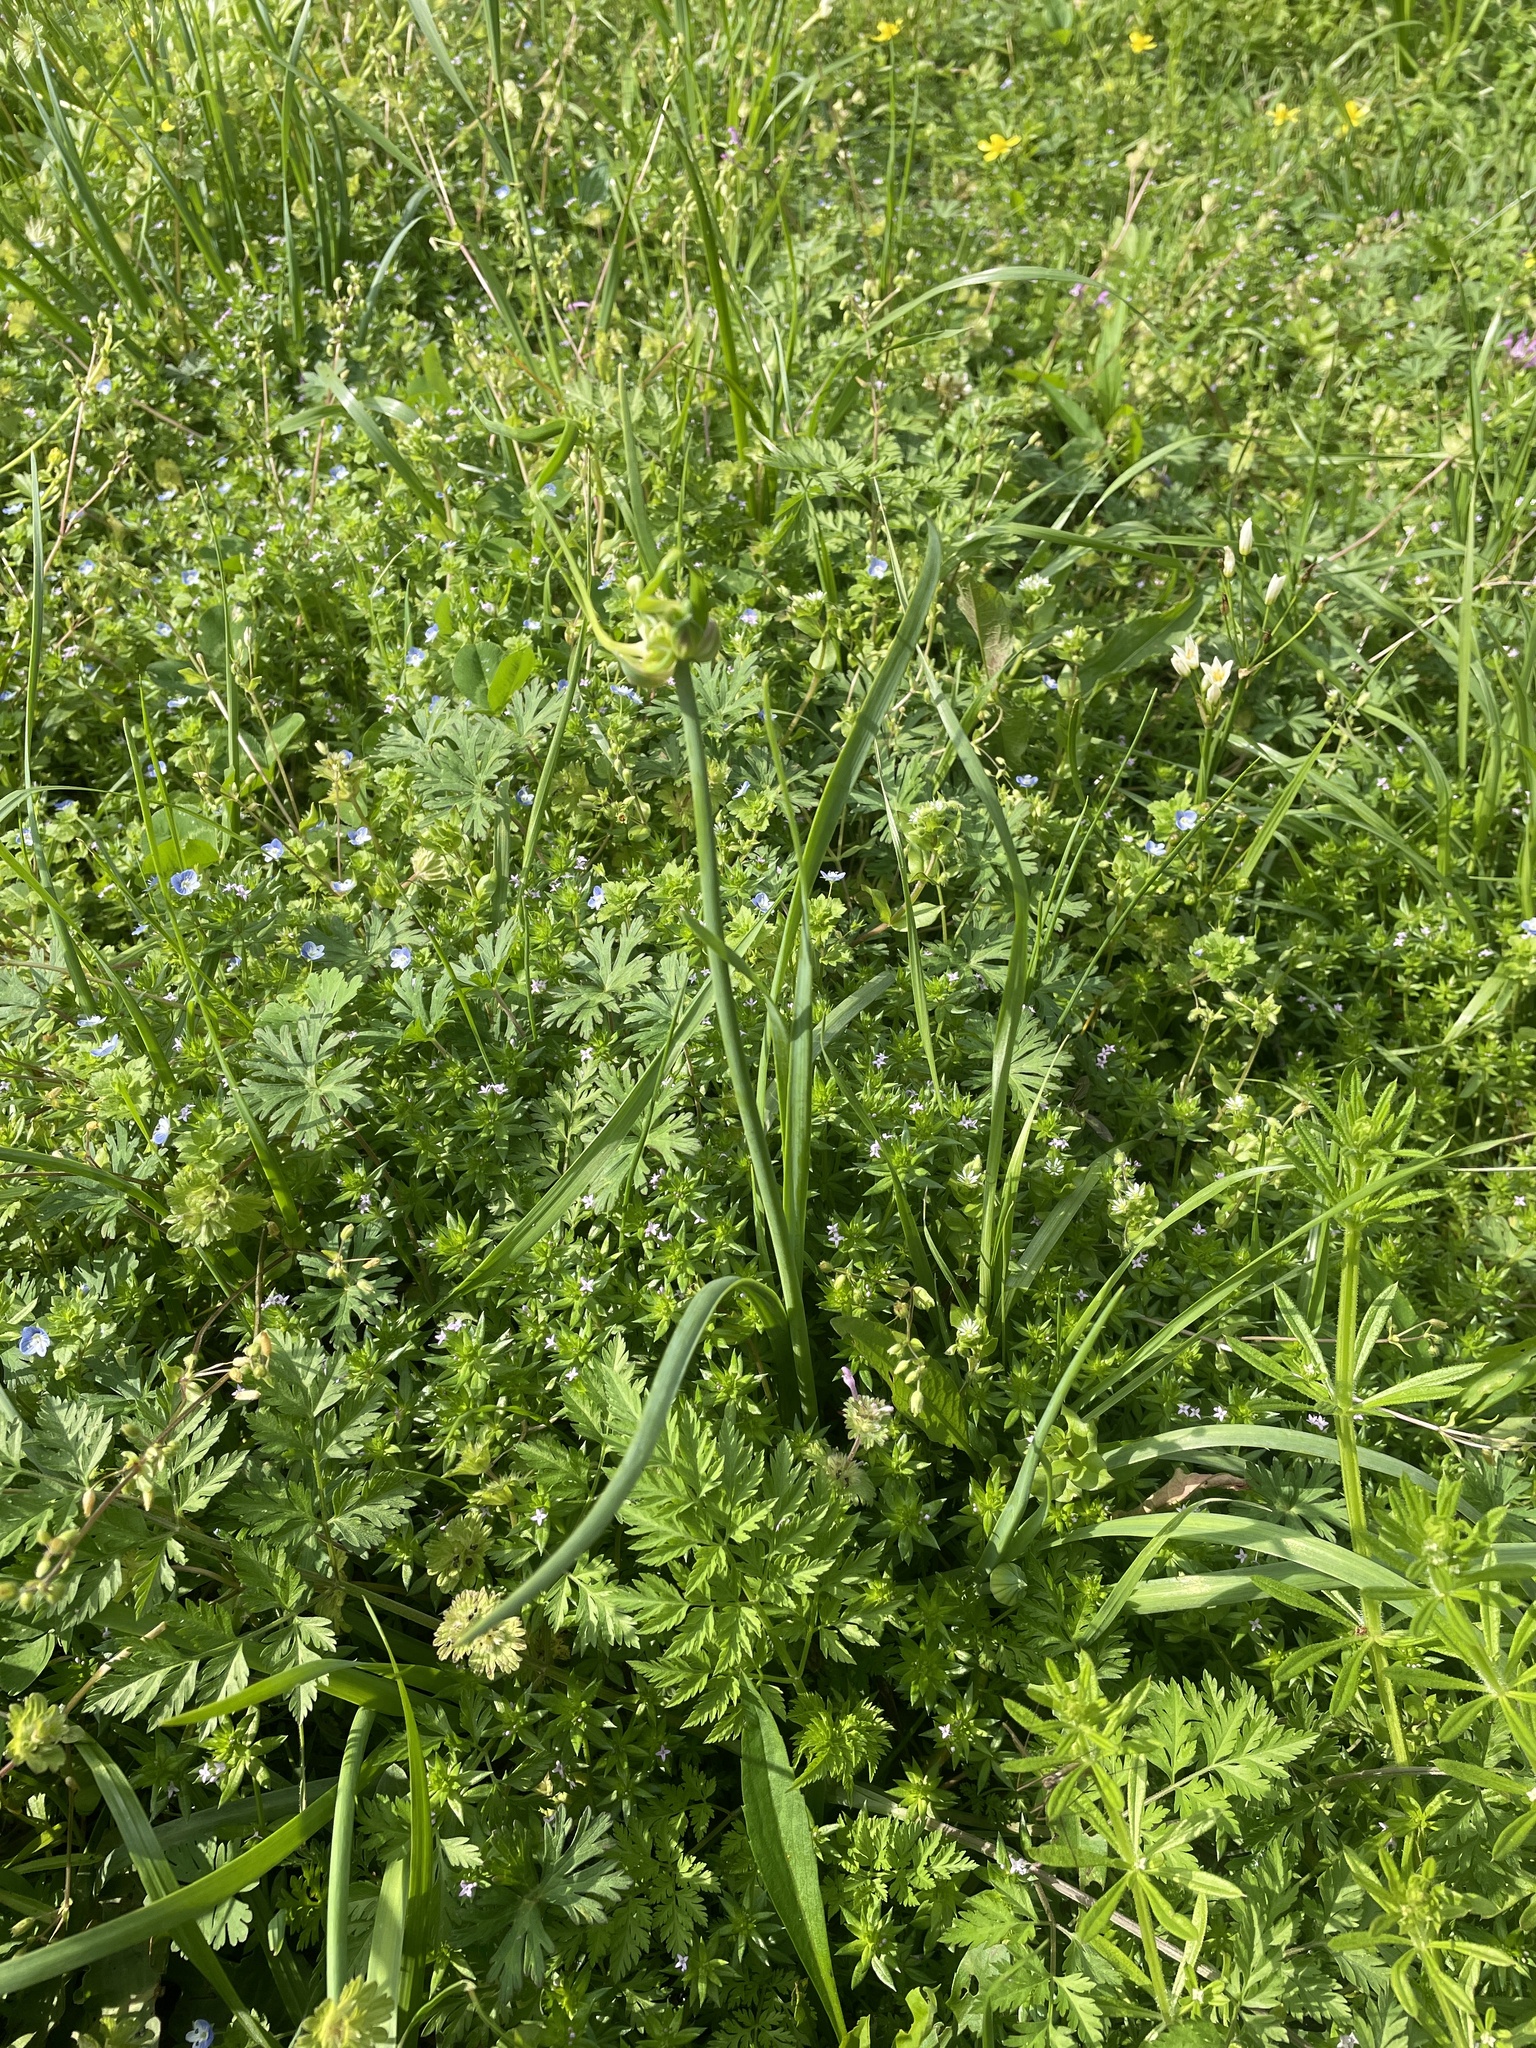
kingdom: Plantae
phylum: Tracheophyta
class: Liliopsida
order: Asparagales
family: Amaryllidaceae
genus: Allium
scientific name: Allium canadense
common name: Meadow garlic
